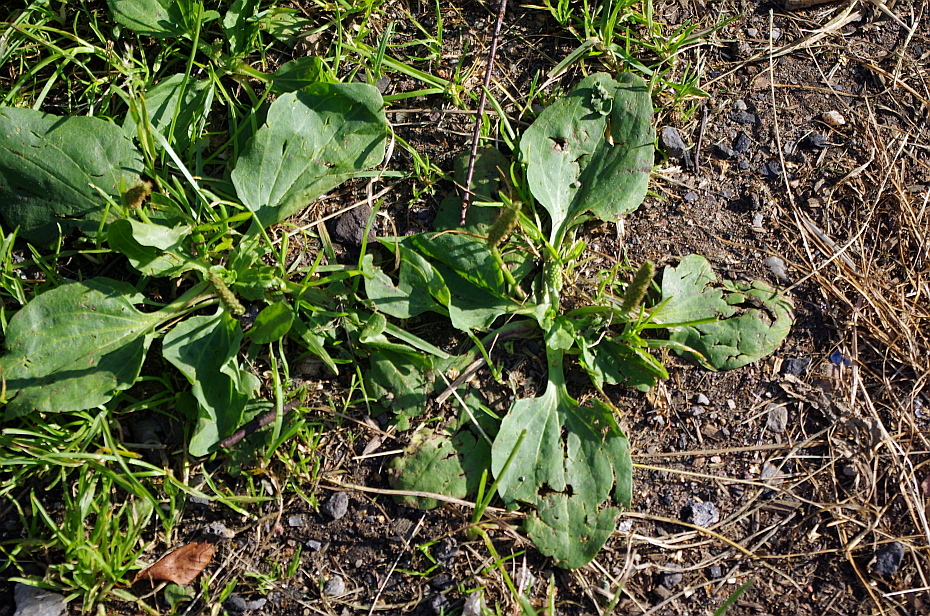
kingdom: Plantae
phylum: Tracheophyta
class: Magnoliopsida
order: Lamiales
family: Plantaginaceae
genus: Plantago
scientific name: Plantago major
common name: Common plantain
